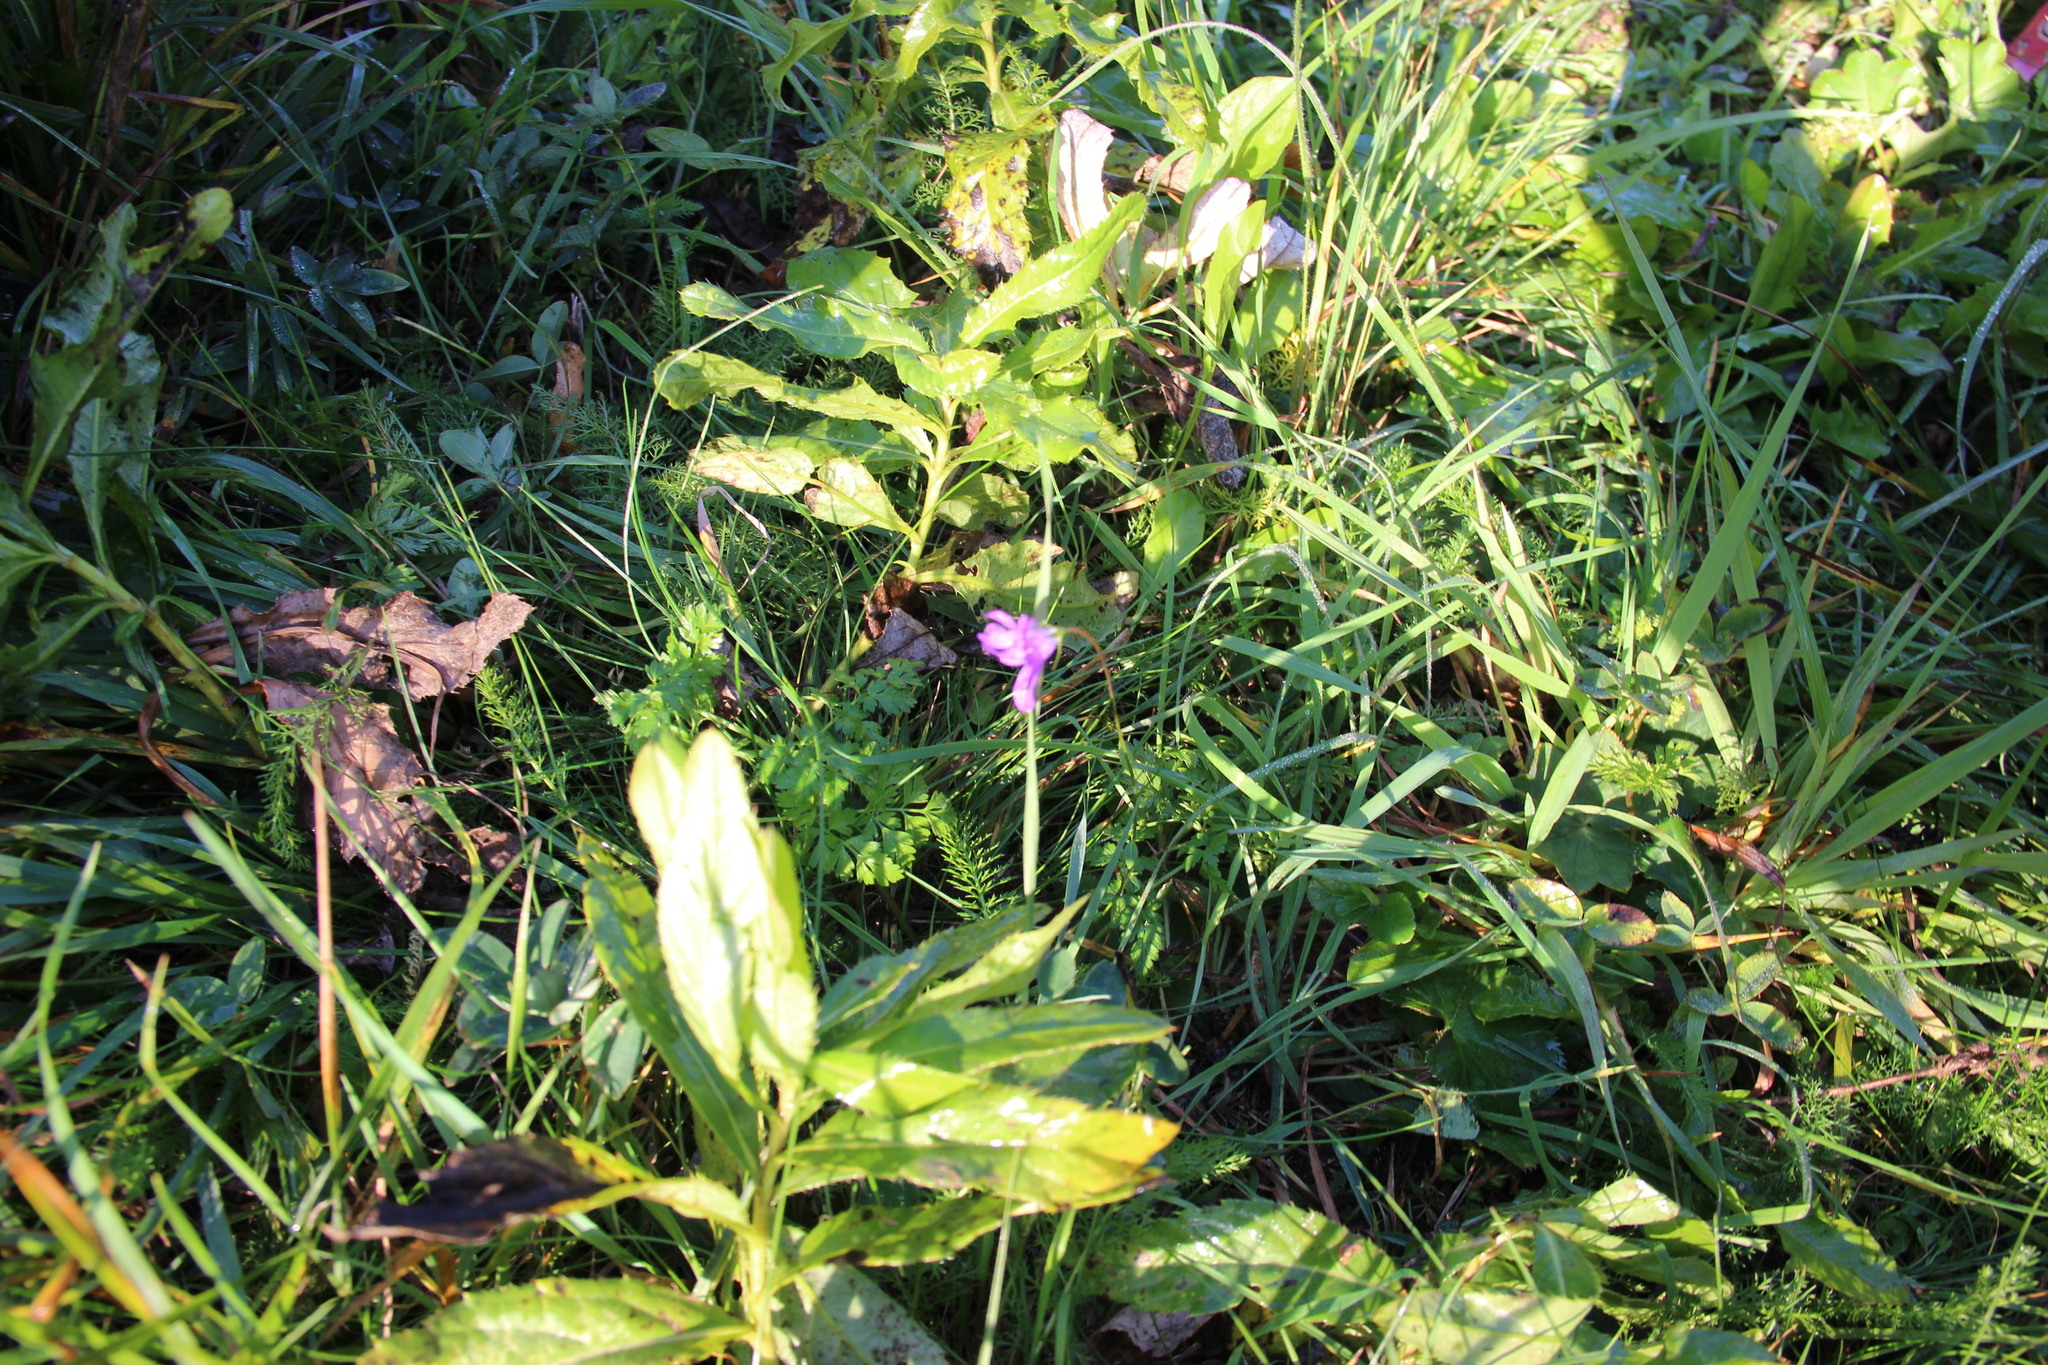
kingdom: Plantae
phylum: Tracheophyta
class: Magnoliopsida
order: Asterales
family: Campanulaceae
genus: Campanula
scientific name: Campanula patula
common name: Spreading bellflower
